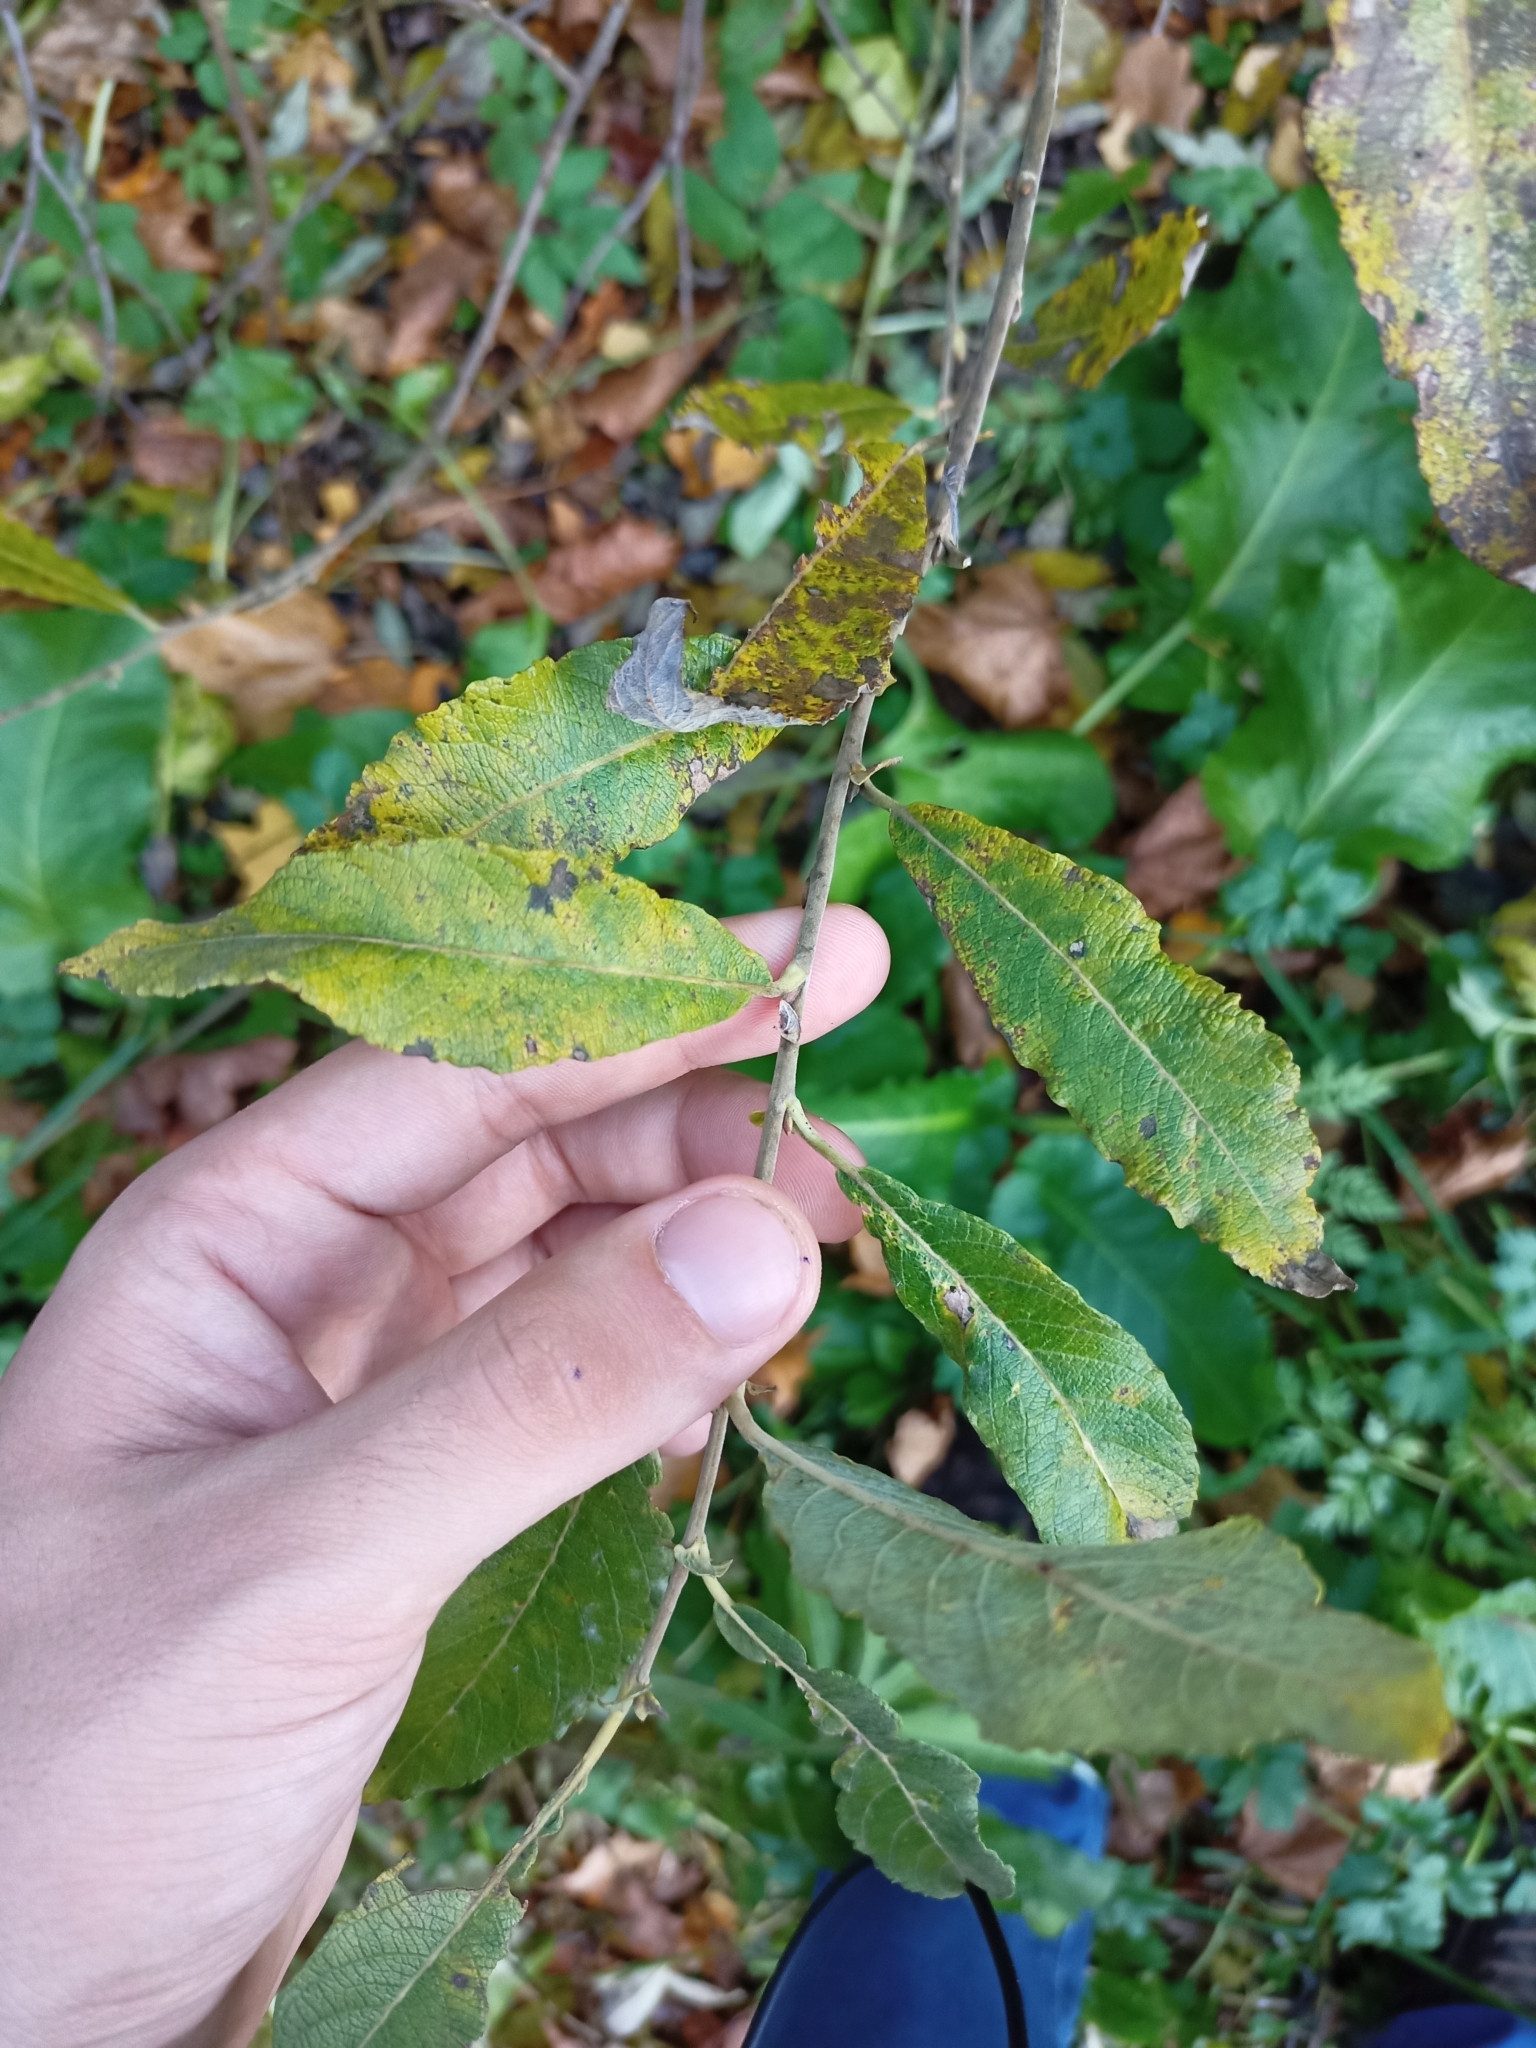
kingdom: Plantae
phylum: Tracheophyta
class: Magnoliopsida
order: Malpighiales
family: Salicaceae
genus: Salix
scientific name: Salix cinerea
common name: Common sallow
